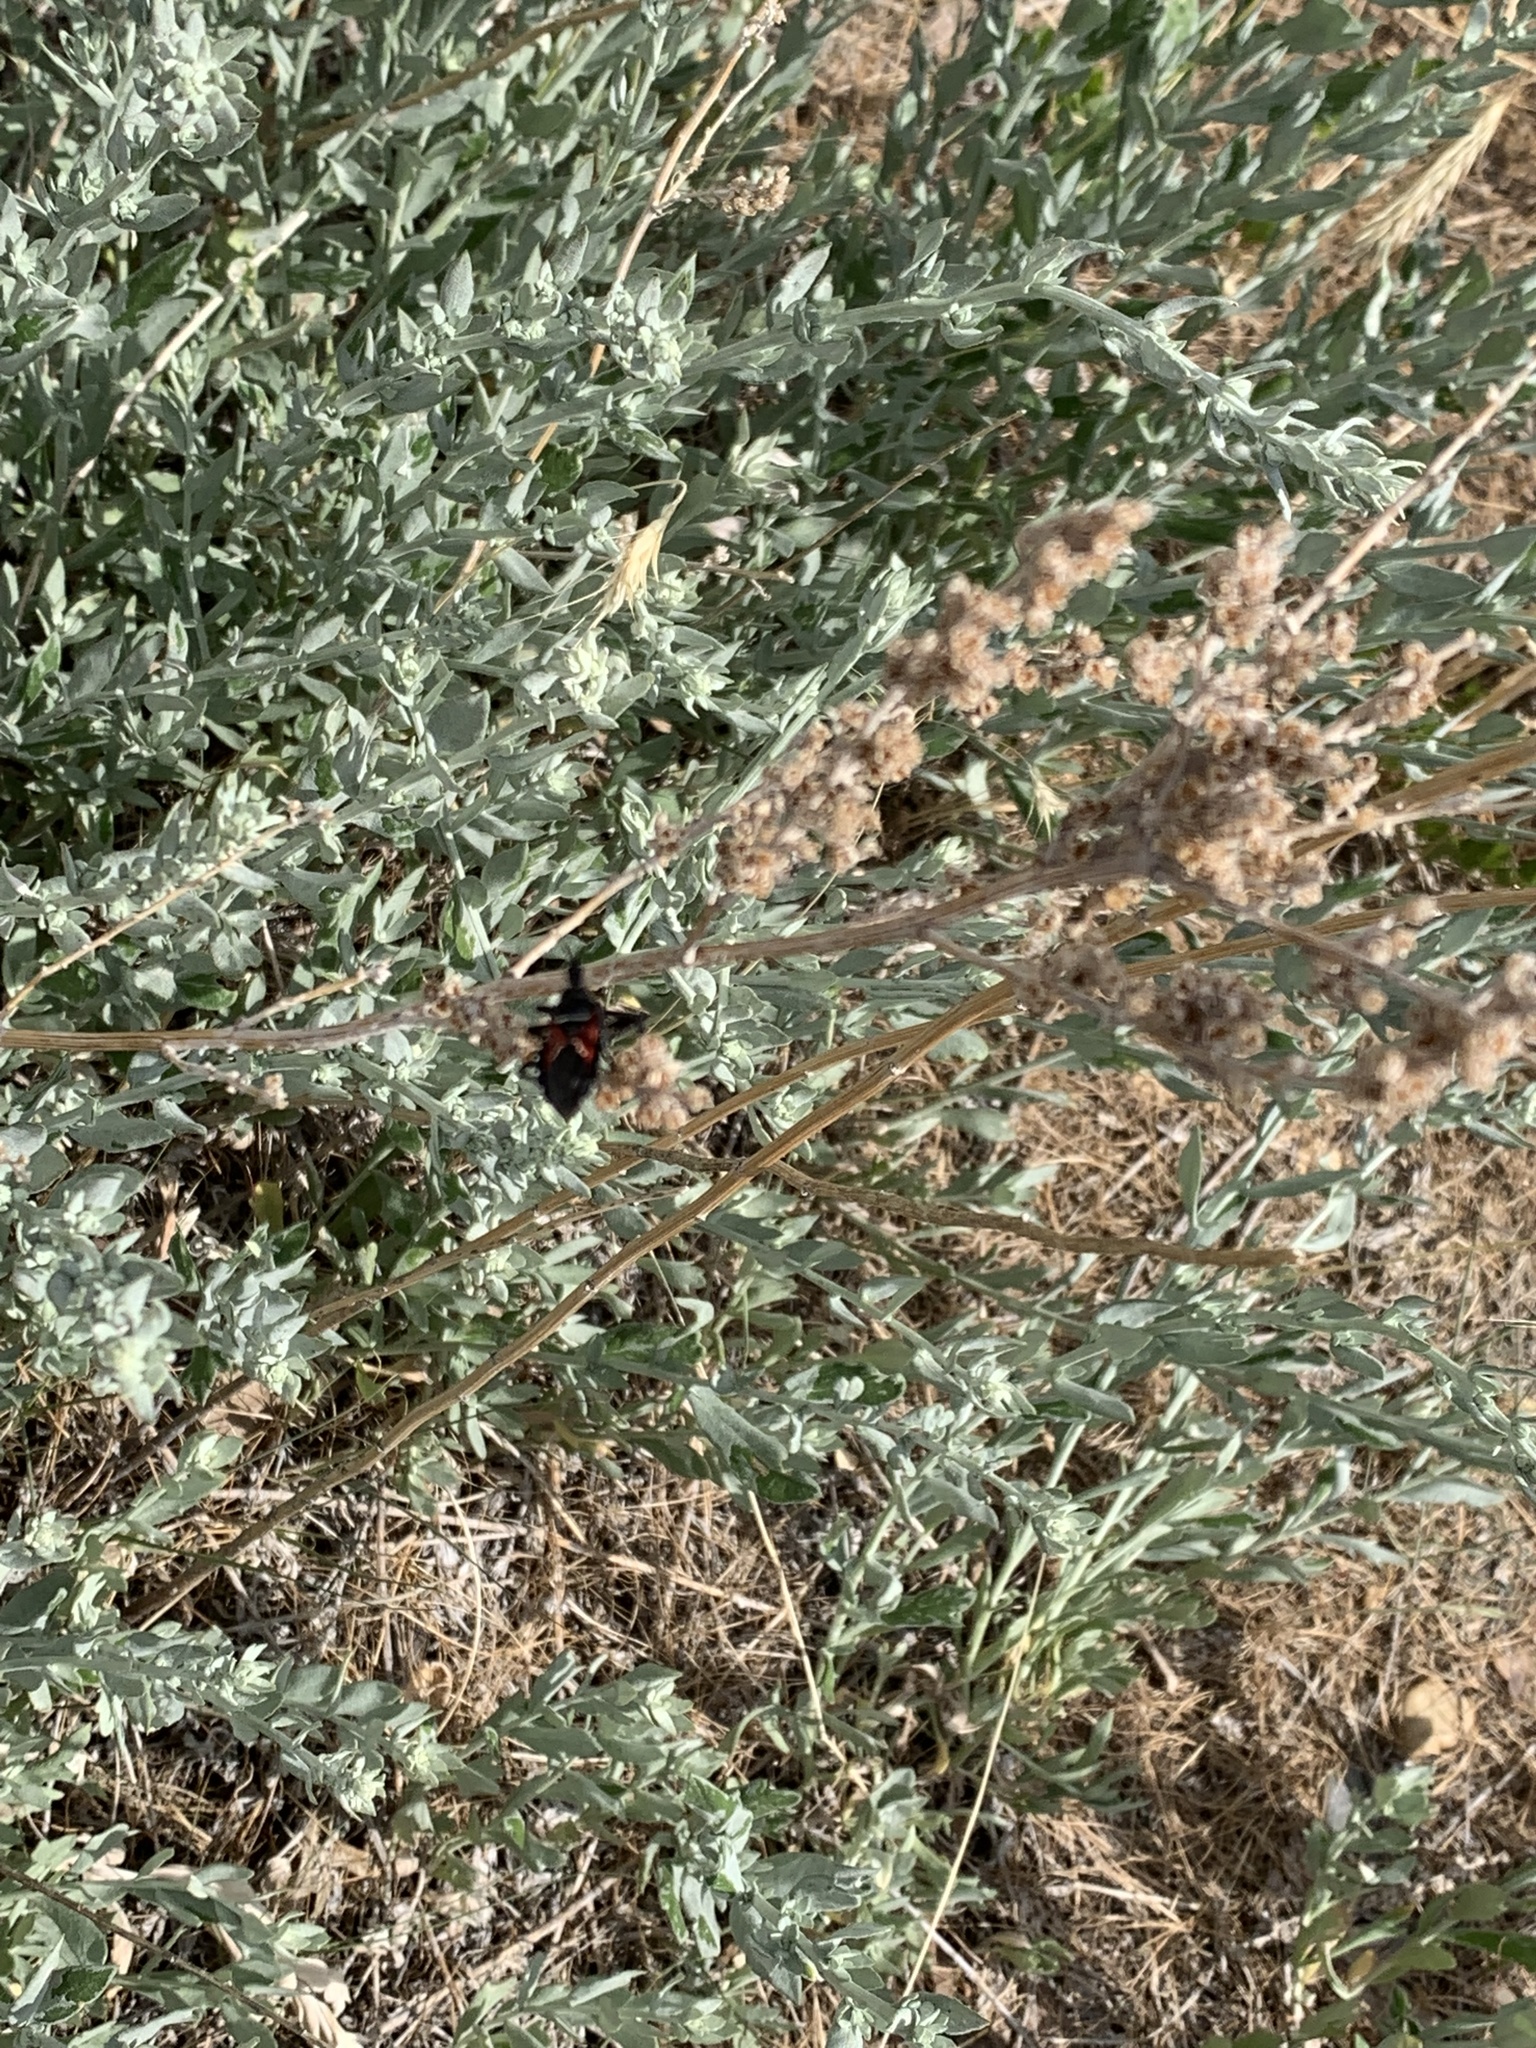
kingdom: Animalia
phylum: Arthropoda
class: Insecta
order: Hemiptera
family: Reduviidae
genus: Apiomerus
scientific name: Apiomerus montanus
